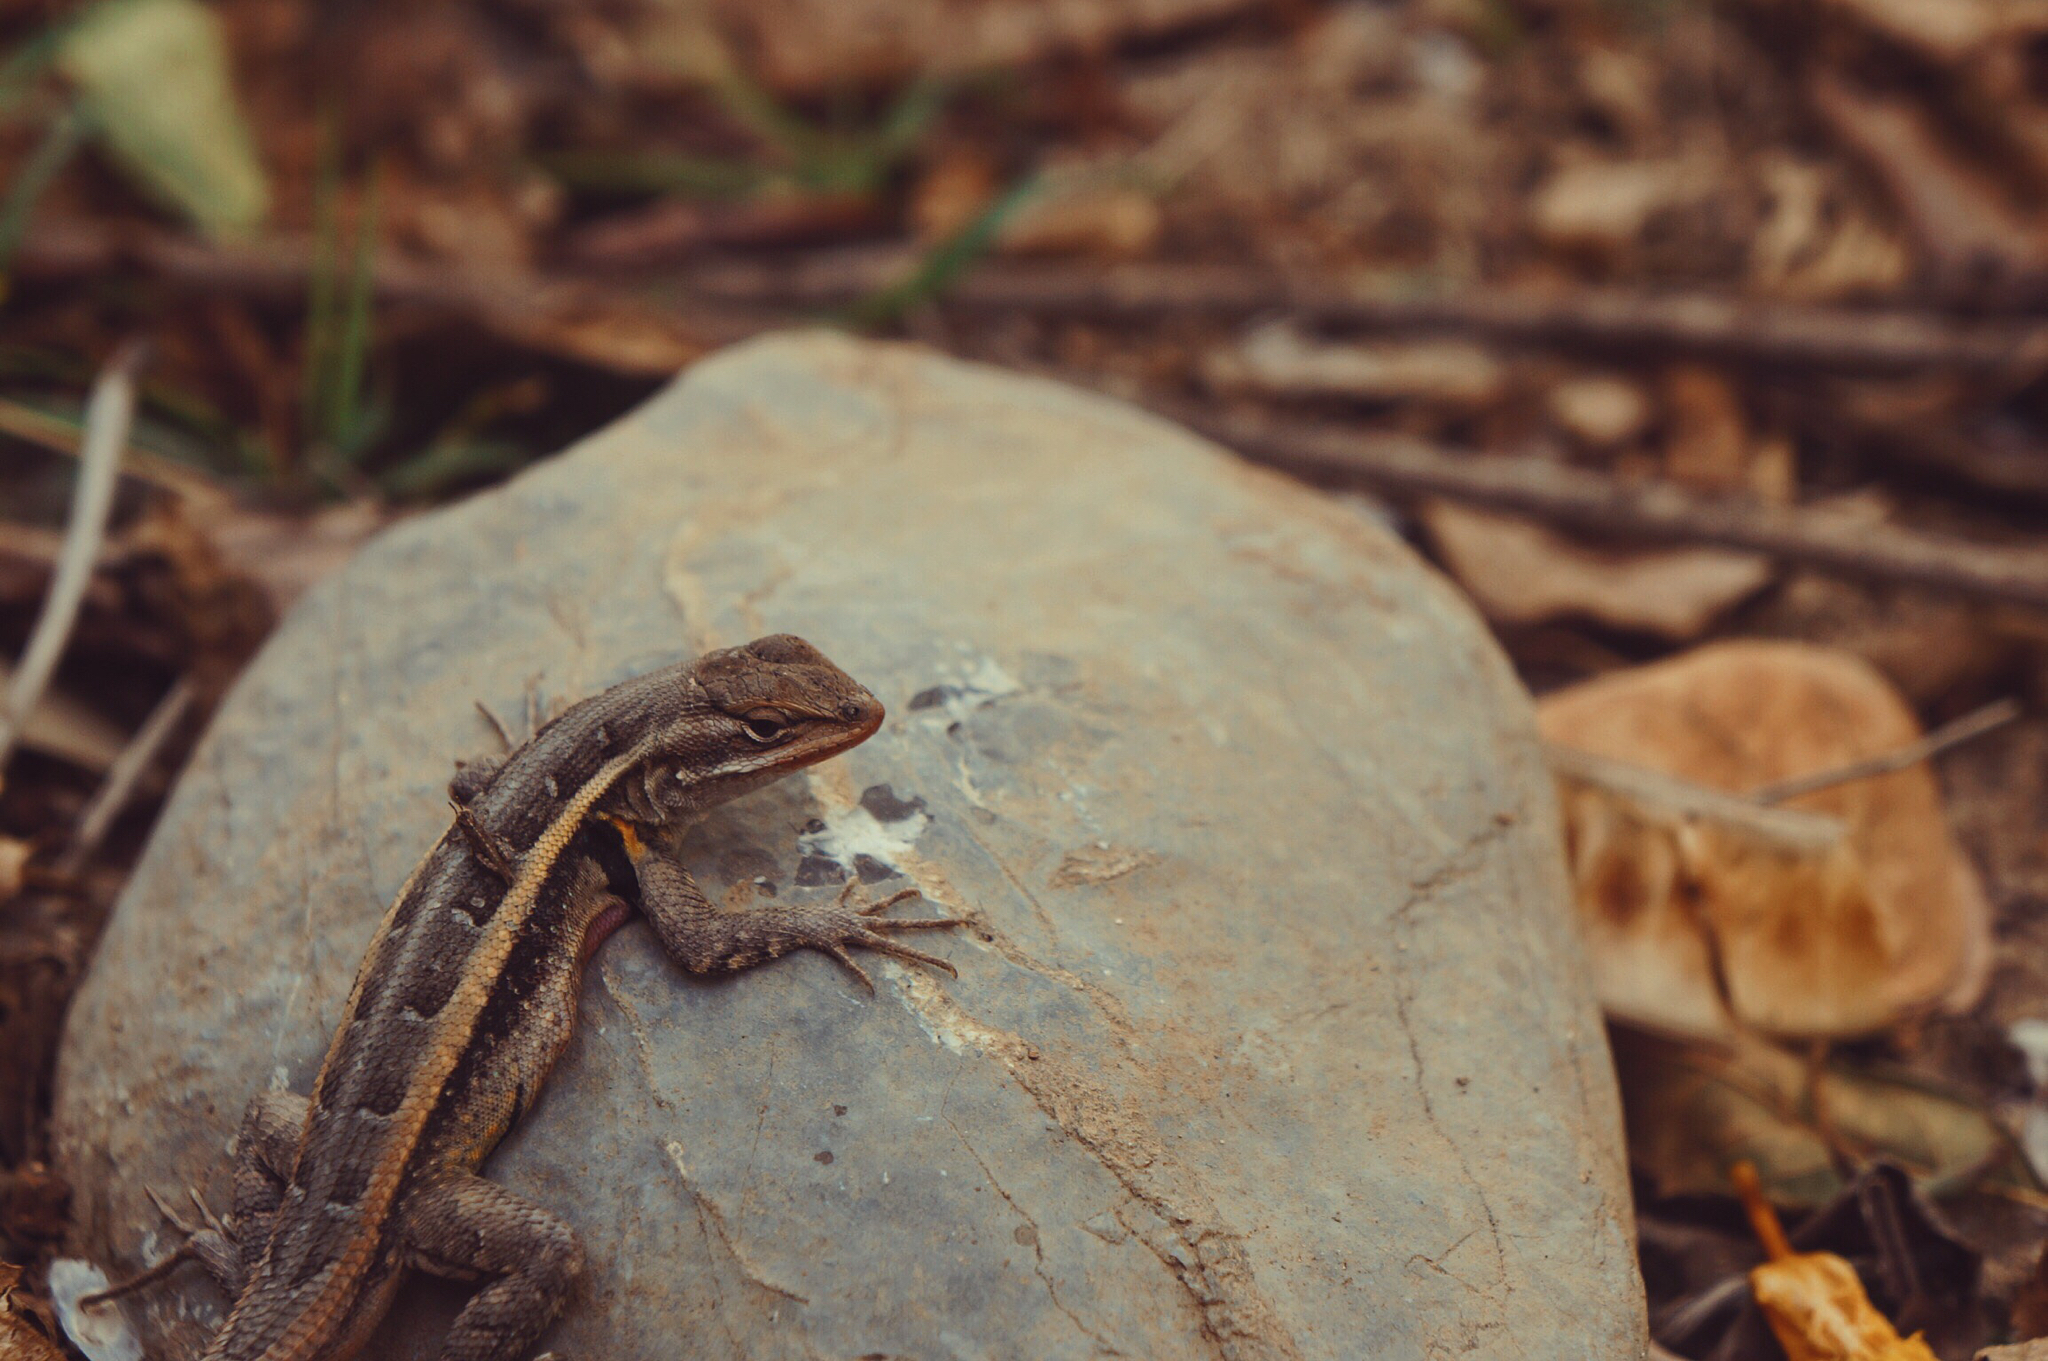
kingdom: Animalia
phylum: Chordata
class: Squamata
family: Phrynosomatidae
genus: Sceloporus
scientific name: Sceloporus variabilis
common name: Rosebelly lizard
